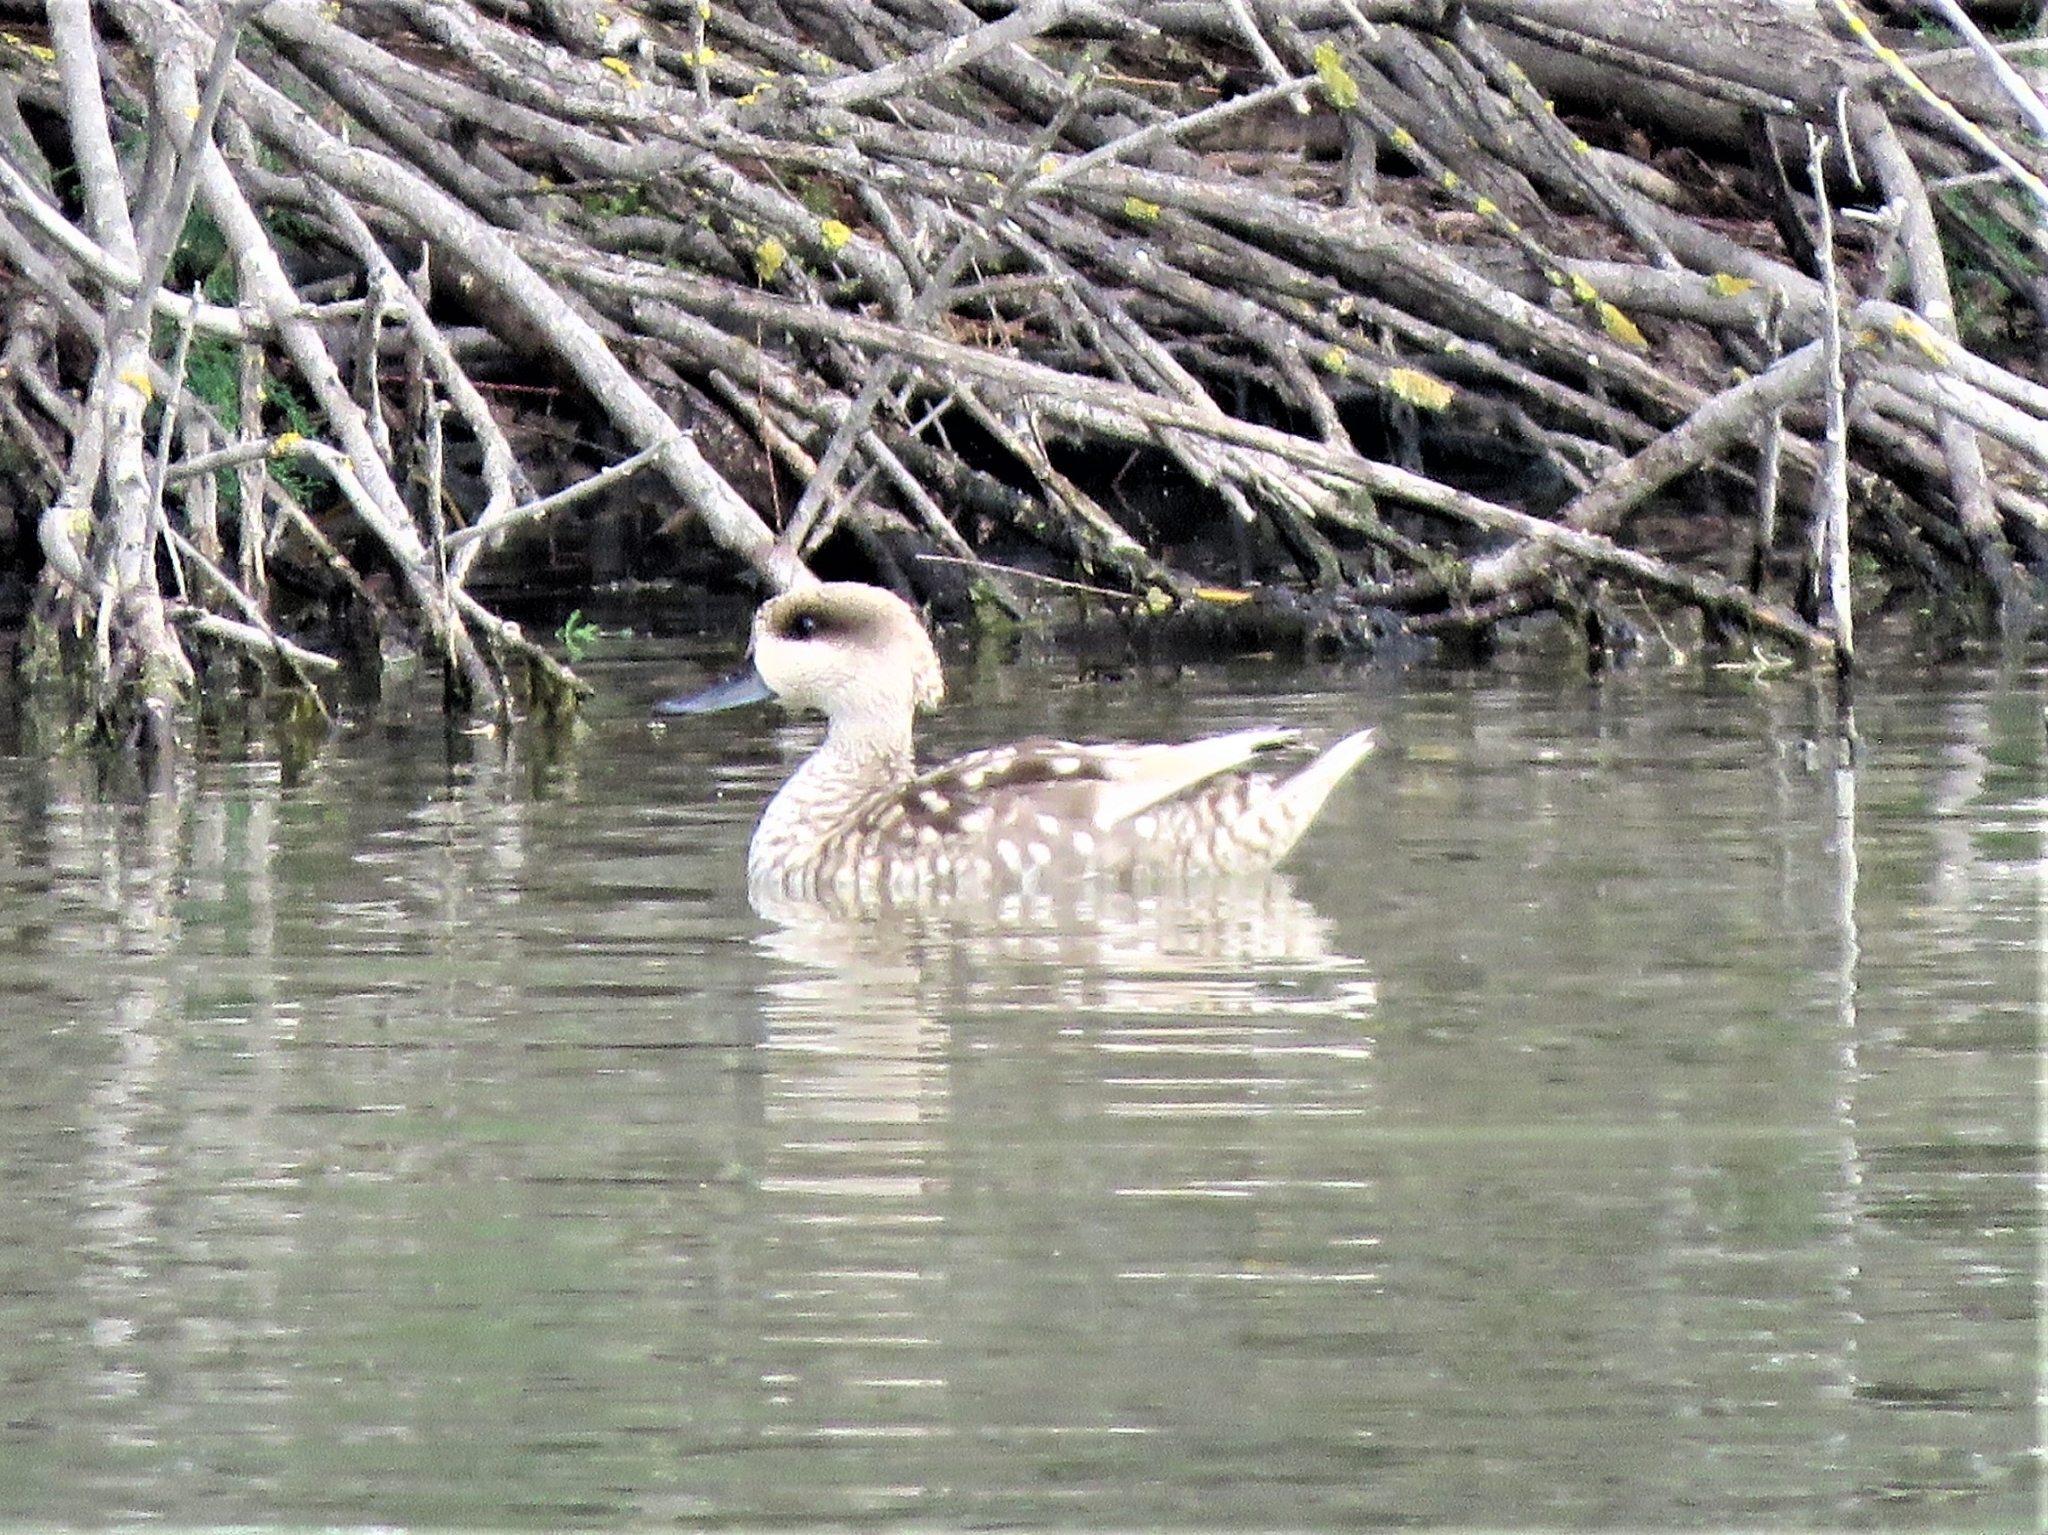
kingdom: Animalia
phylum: Chordata
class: Aves
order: Anseriformes
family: Anatidae
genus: Marmaronetta
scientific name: Marmaronetta angustirostris
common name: Marbled duck
